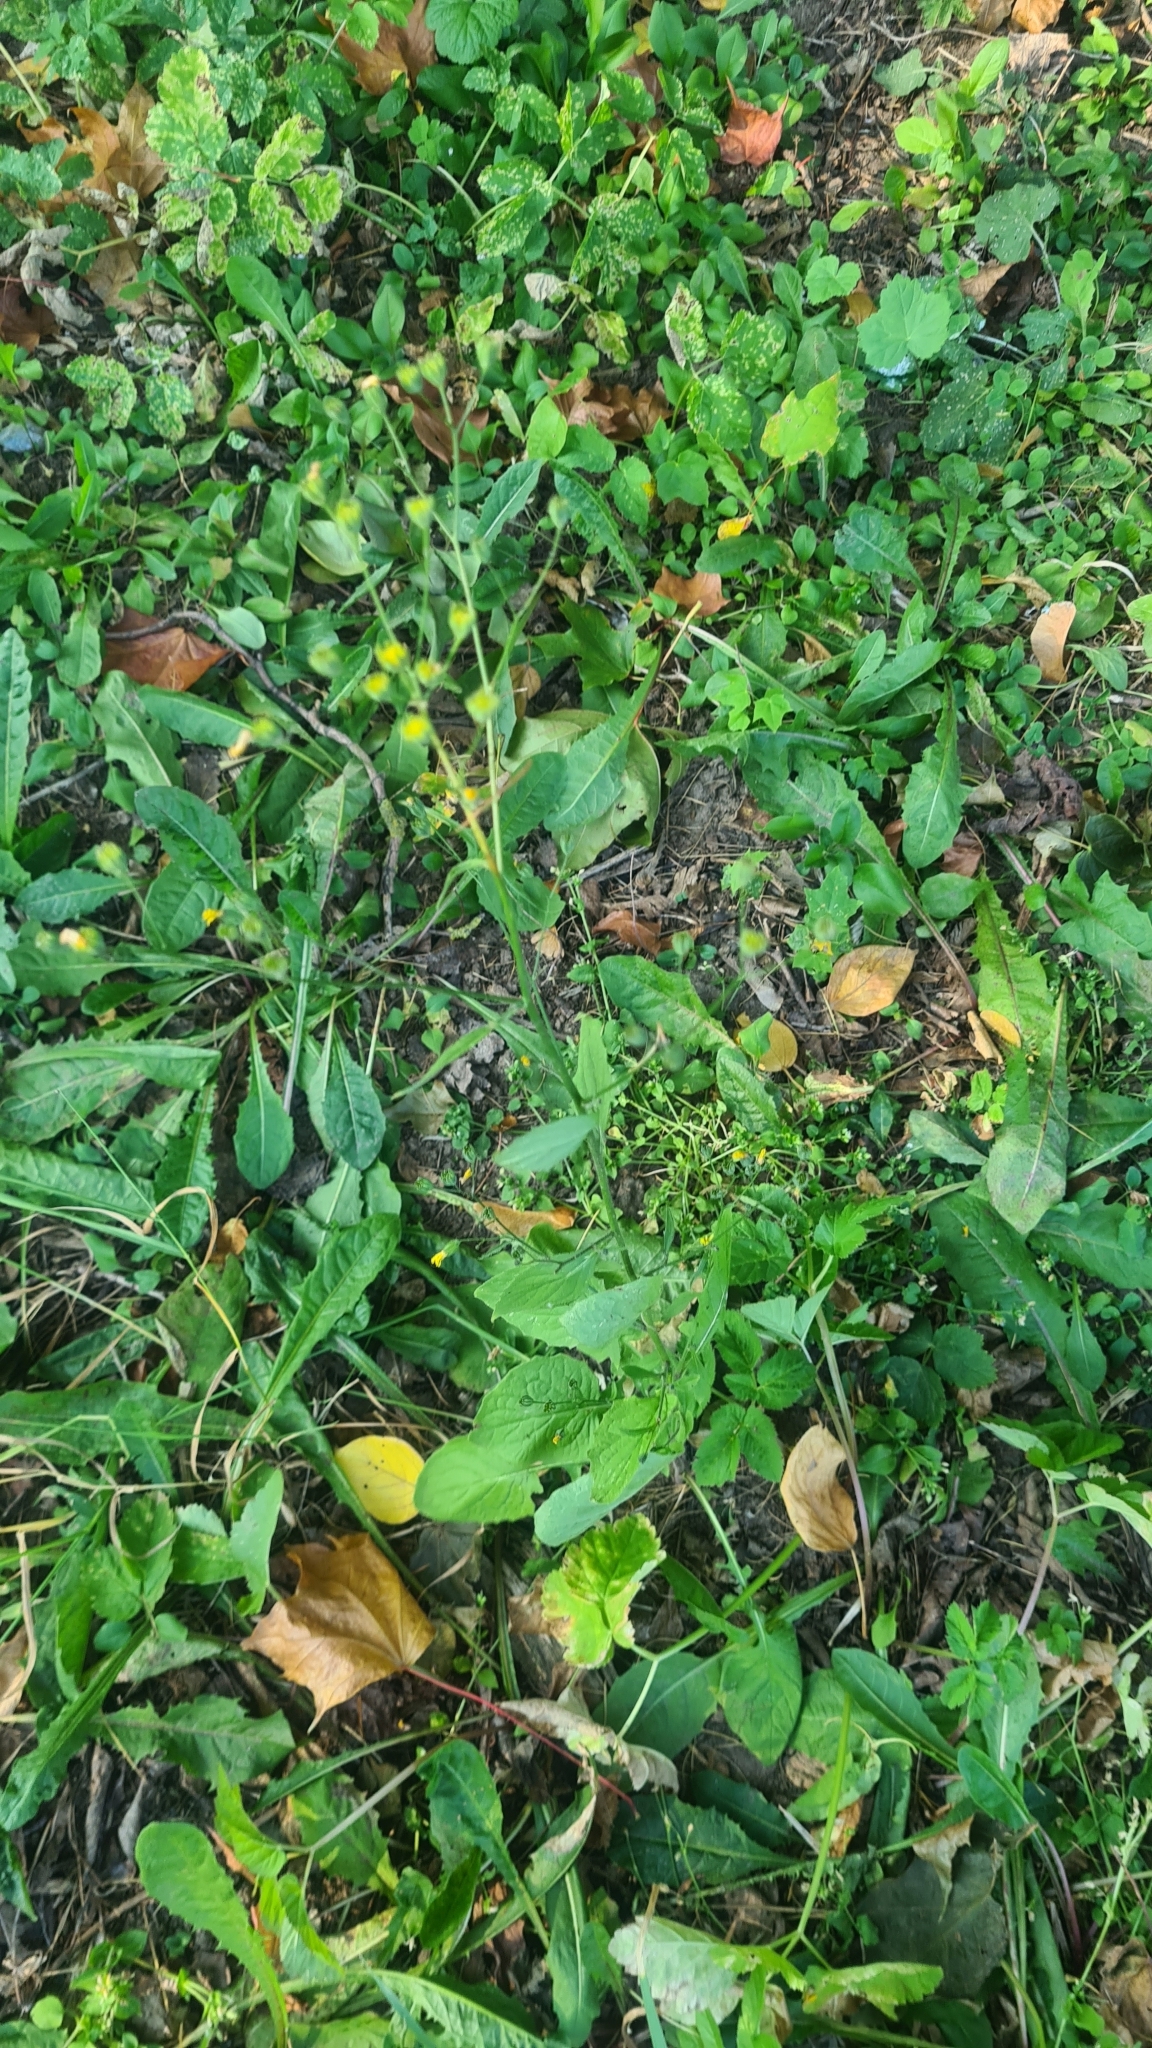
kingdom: Plantae
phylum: Tracheophyta
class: Magnoliopsida
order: Asterales
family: Asteraceae
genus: Lapsana
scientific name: Lapsana communis
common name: Nipplewort
